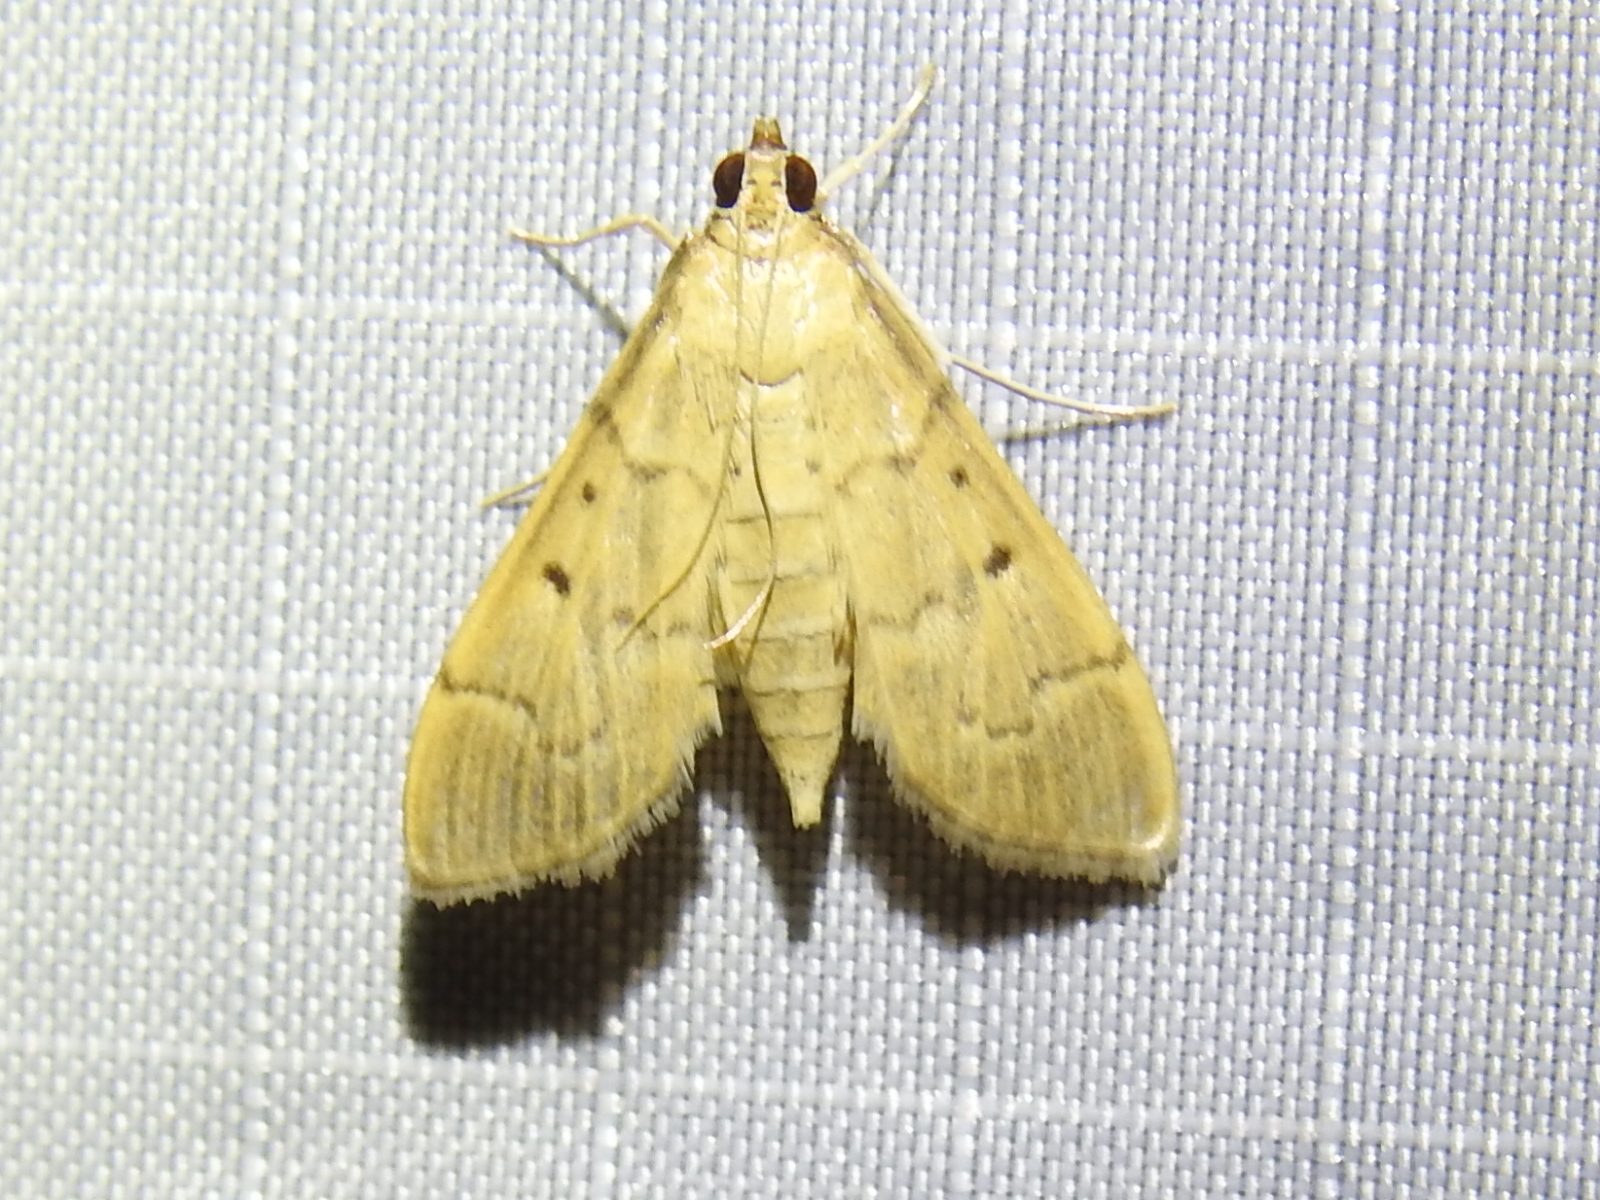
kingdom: Animalia
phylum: Arthropoda
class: Insecta
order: Lepidoptera
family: Crambidae
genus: Herpetogramma
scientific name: Herpetogramma bipunctalis
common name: Southern beet webworm
